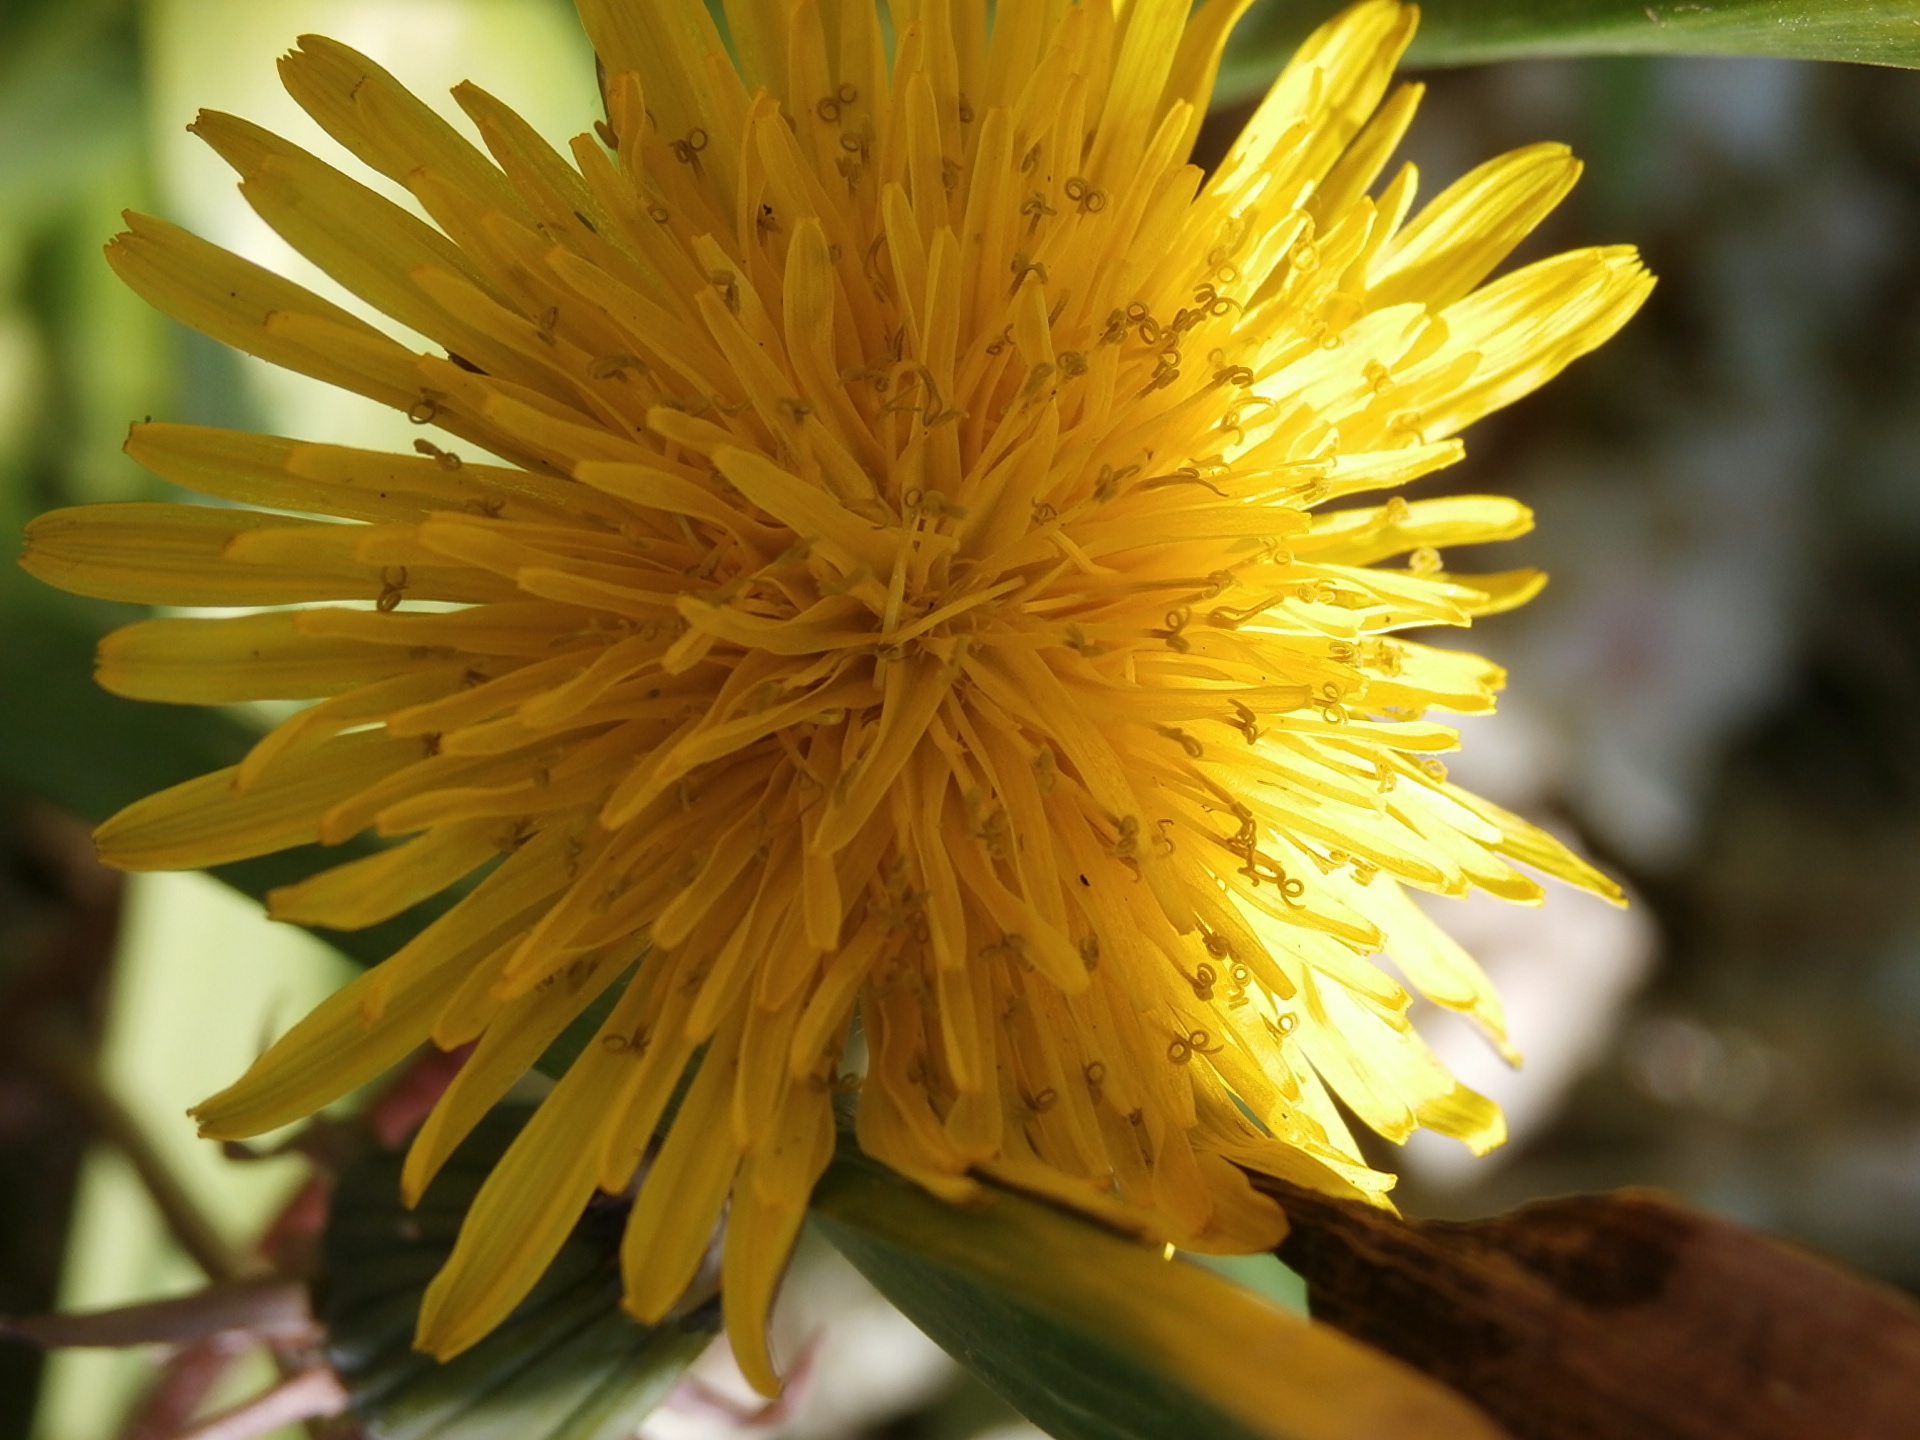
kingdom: Plantae
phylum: Tracheophyta
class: Magnoliopsida
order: Asterales
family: Asteraceae
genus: Taraxacum
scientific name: Taraxacum officinale
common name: Common dandelion
